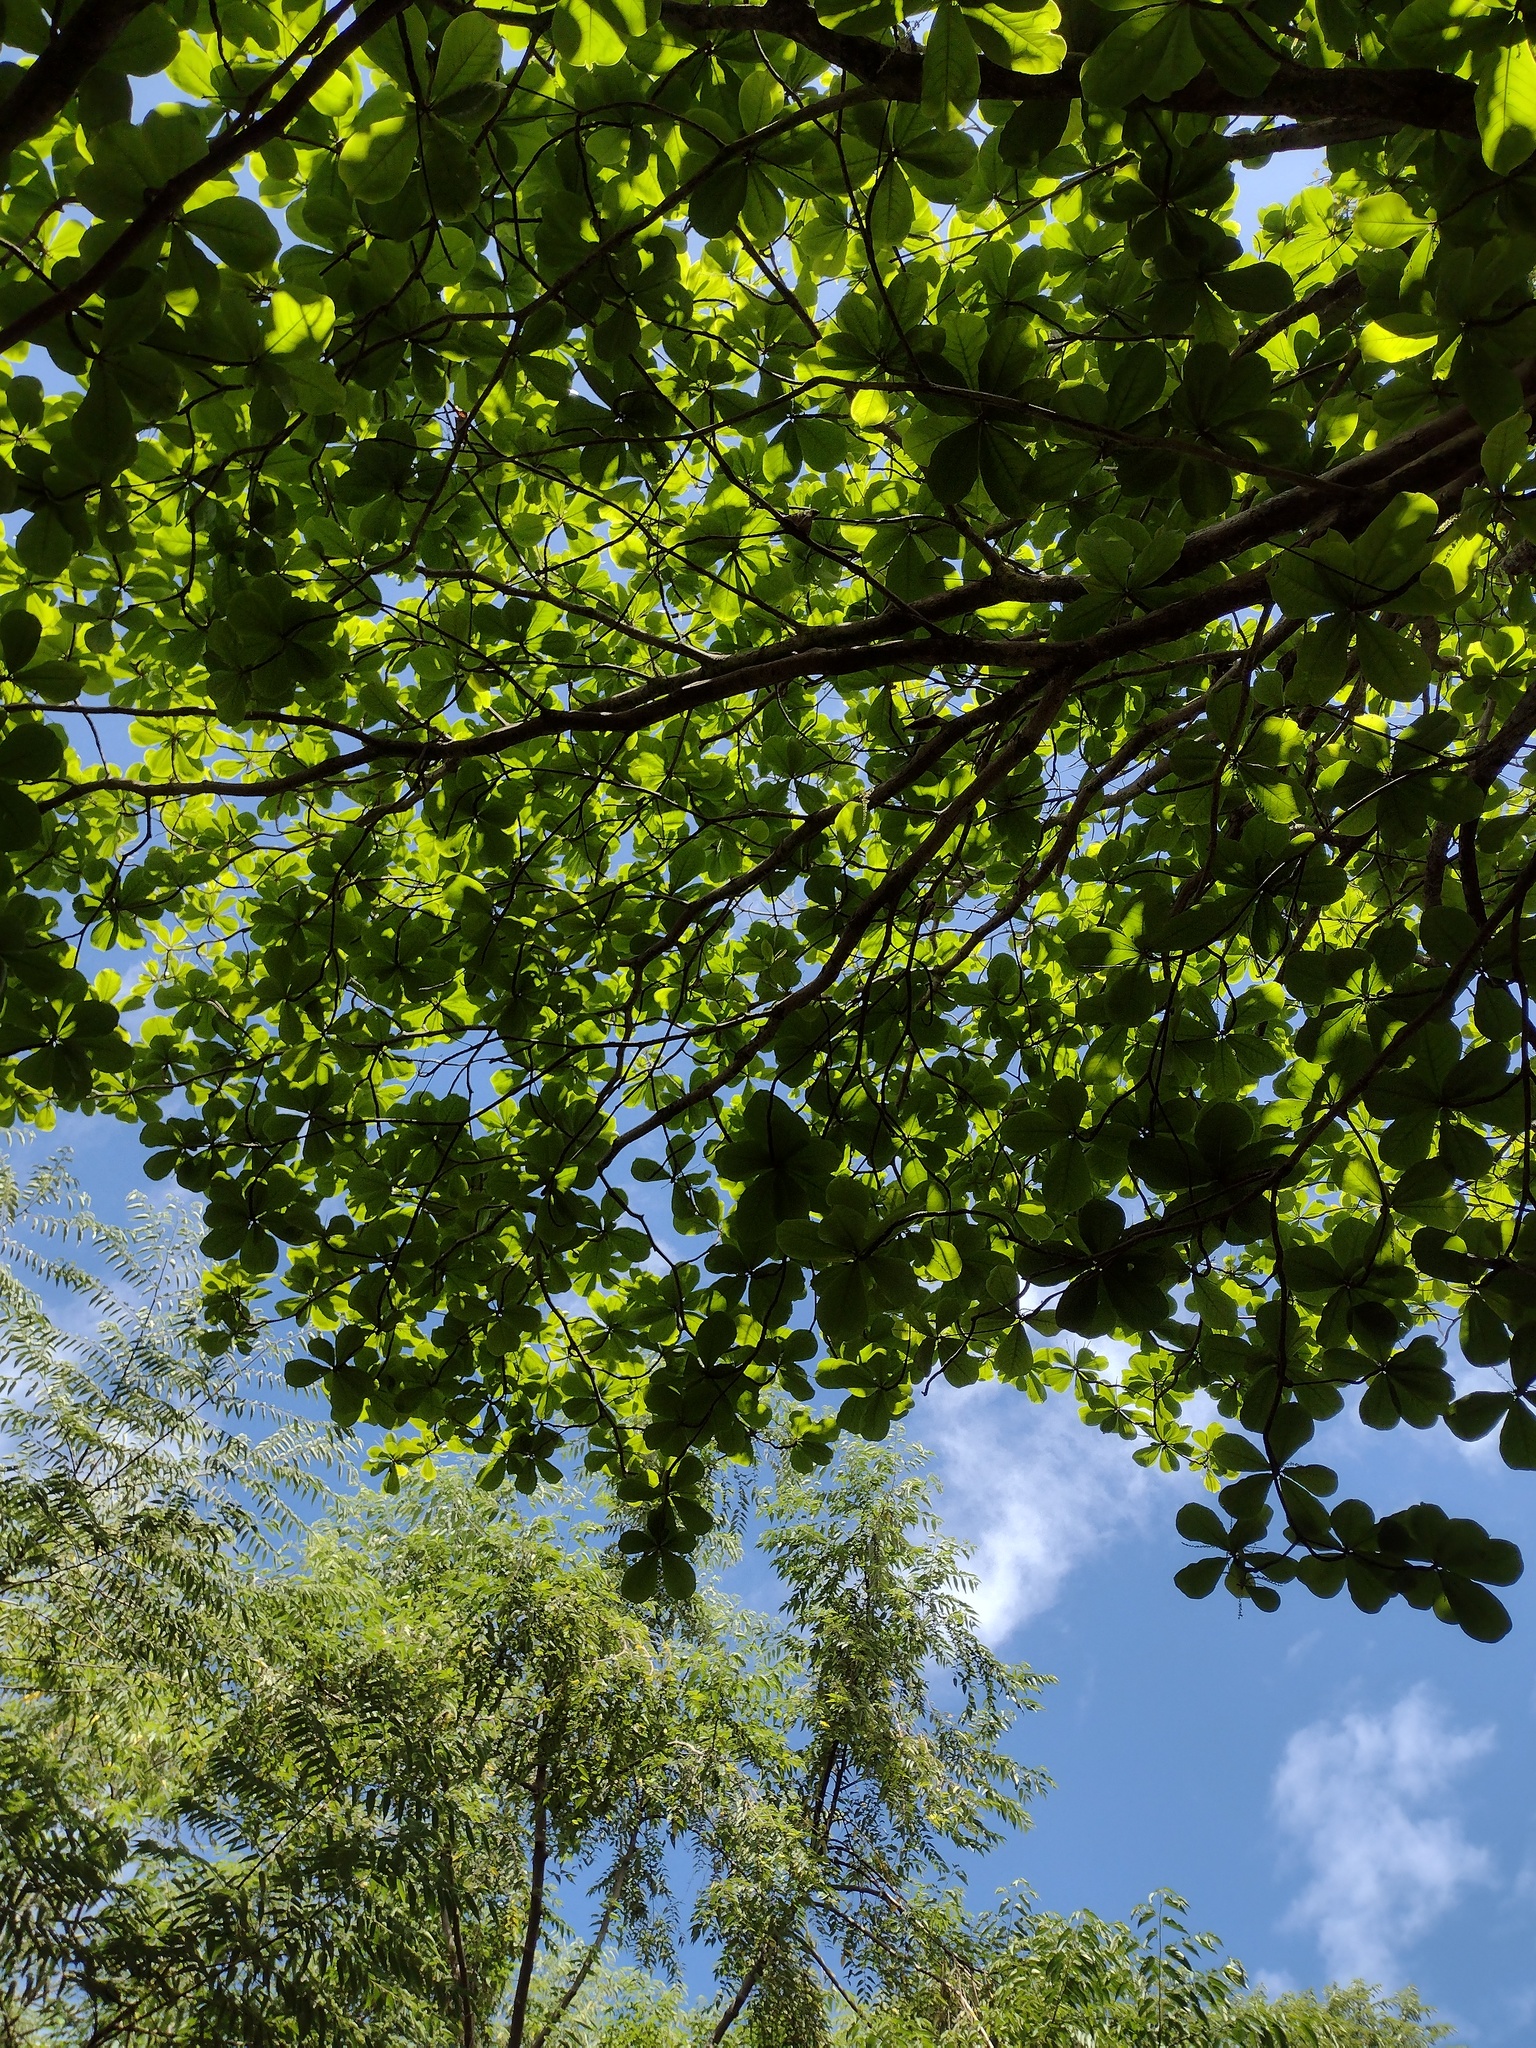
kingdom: Plantae
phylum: Tracheophyta
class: Magnoliopsida
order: Myrtales
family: Combretaceae
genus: Terminalia
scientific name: Terminalia catappa
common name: Tropical almond
